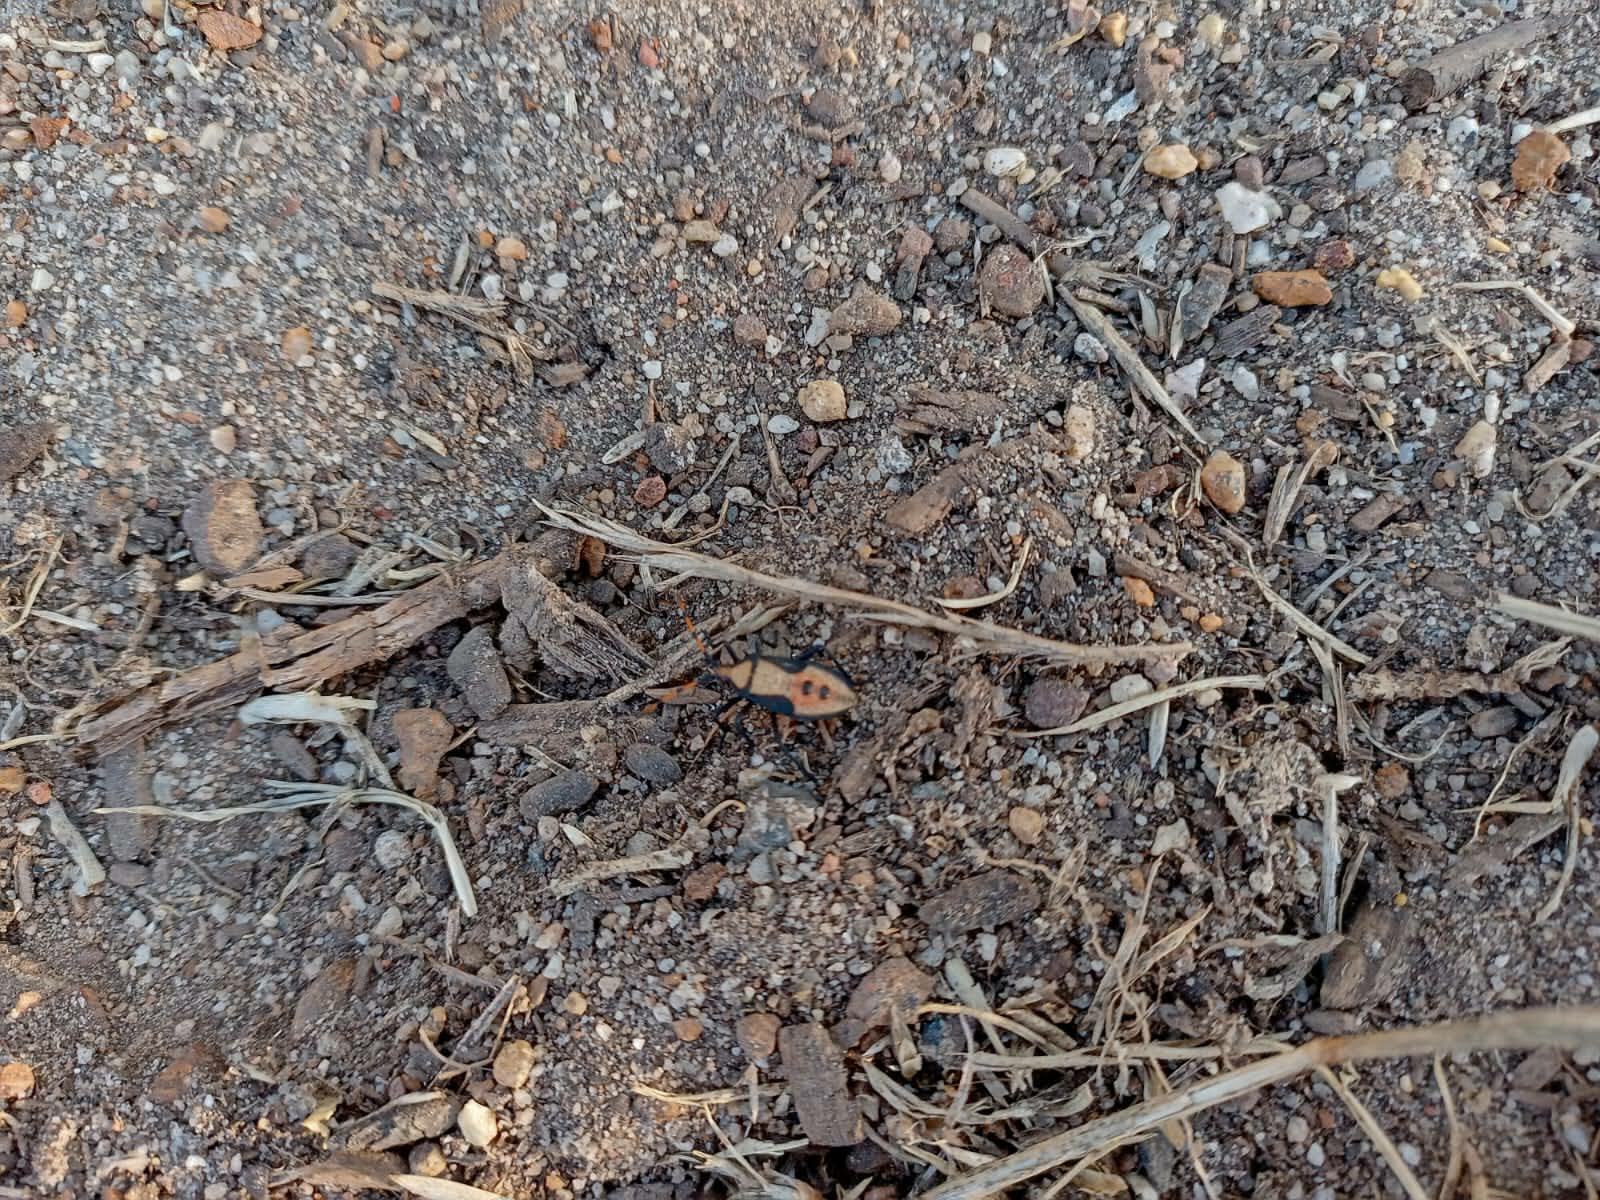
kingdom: Animalia
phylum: Arthropoda
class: Insecta
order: Hemiptera
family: Coreidae
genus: Homoeocerus
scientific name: Homoeocerus annulatus
